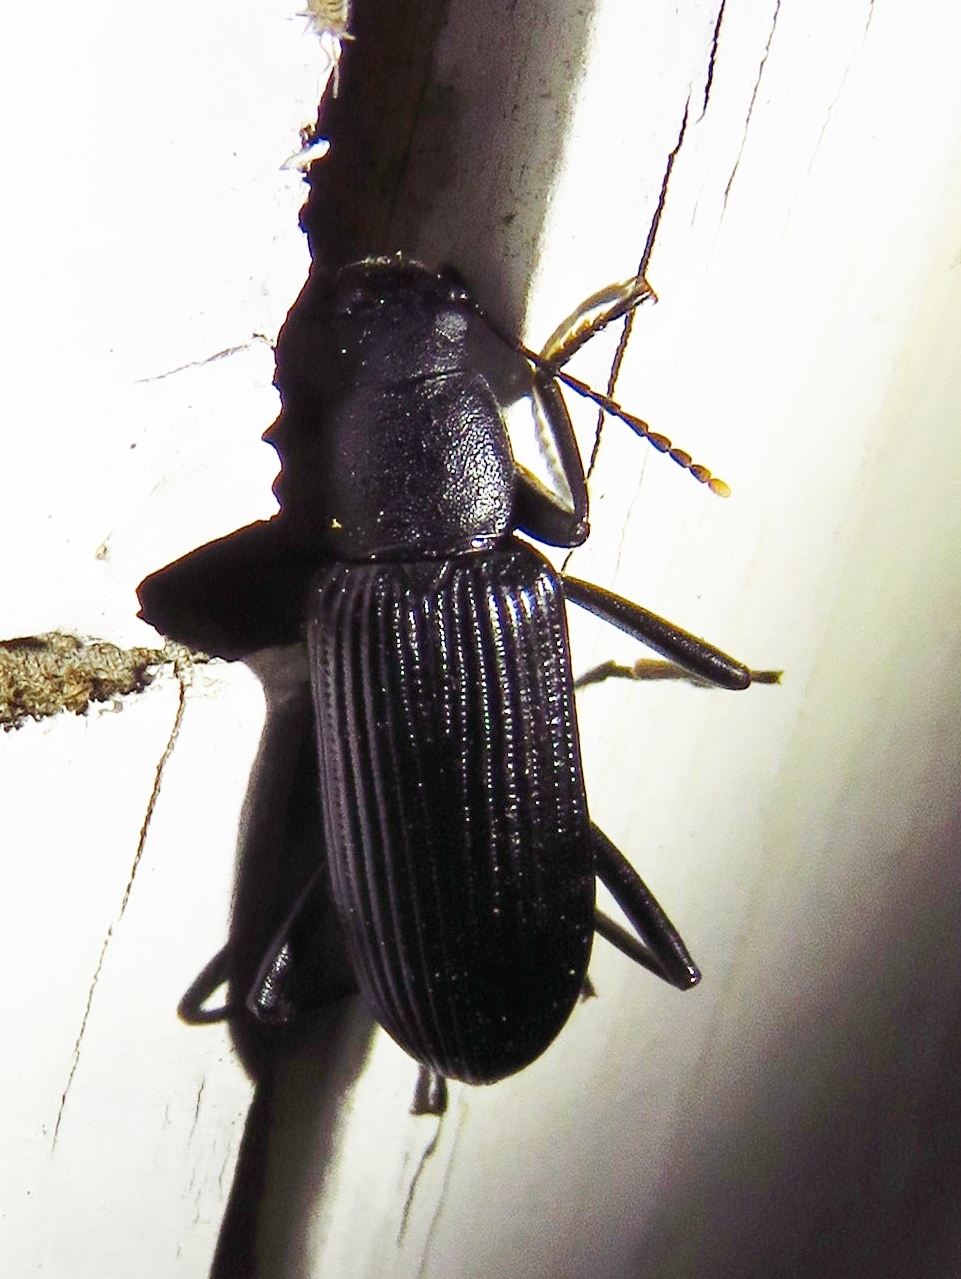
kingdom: Animalia
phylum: Arthropoda
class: Insecta
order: Coleoptera
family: Tenebrionidae
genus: Strongylium
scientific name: Strongylium tenuicolle
